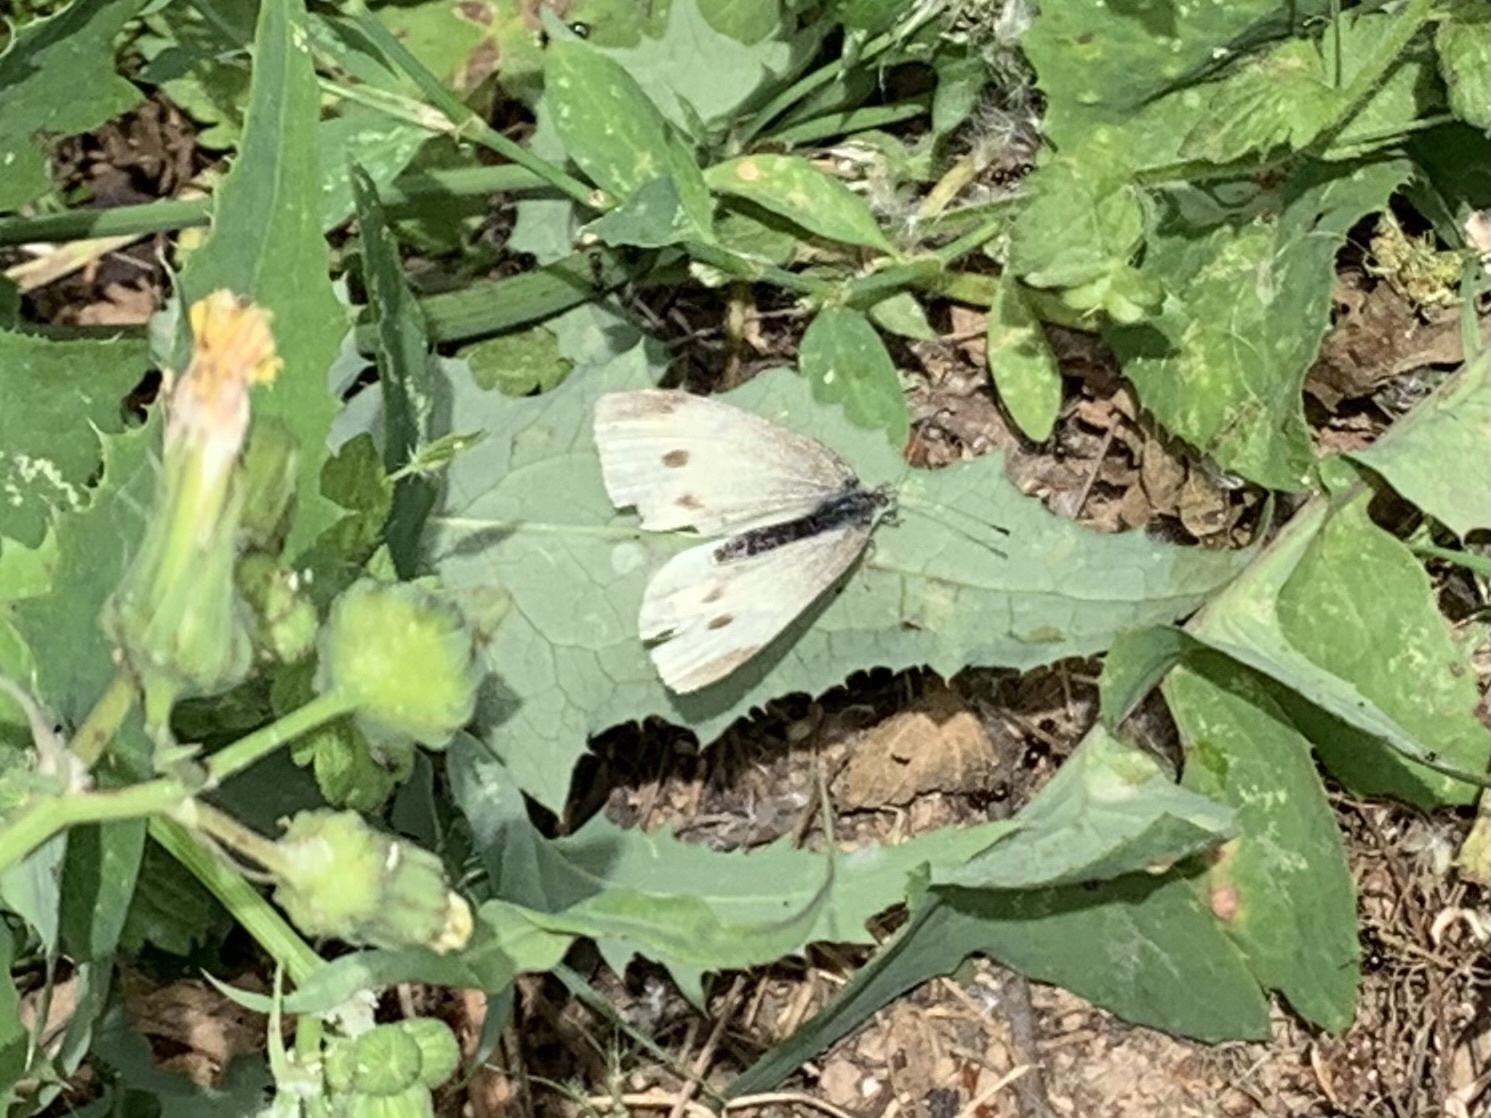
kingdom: Animalia
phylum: Arthropoda
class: Insecta
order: Lepidoptera
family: Pieridae
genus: Pieris
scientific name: Pieris rapae
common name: Small white
